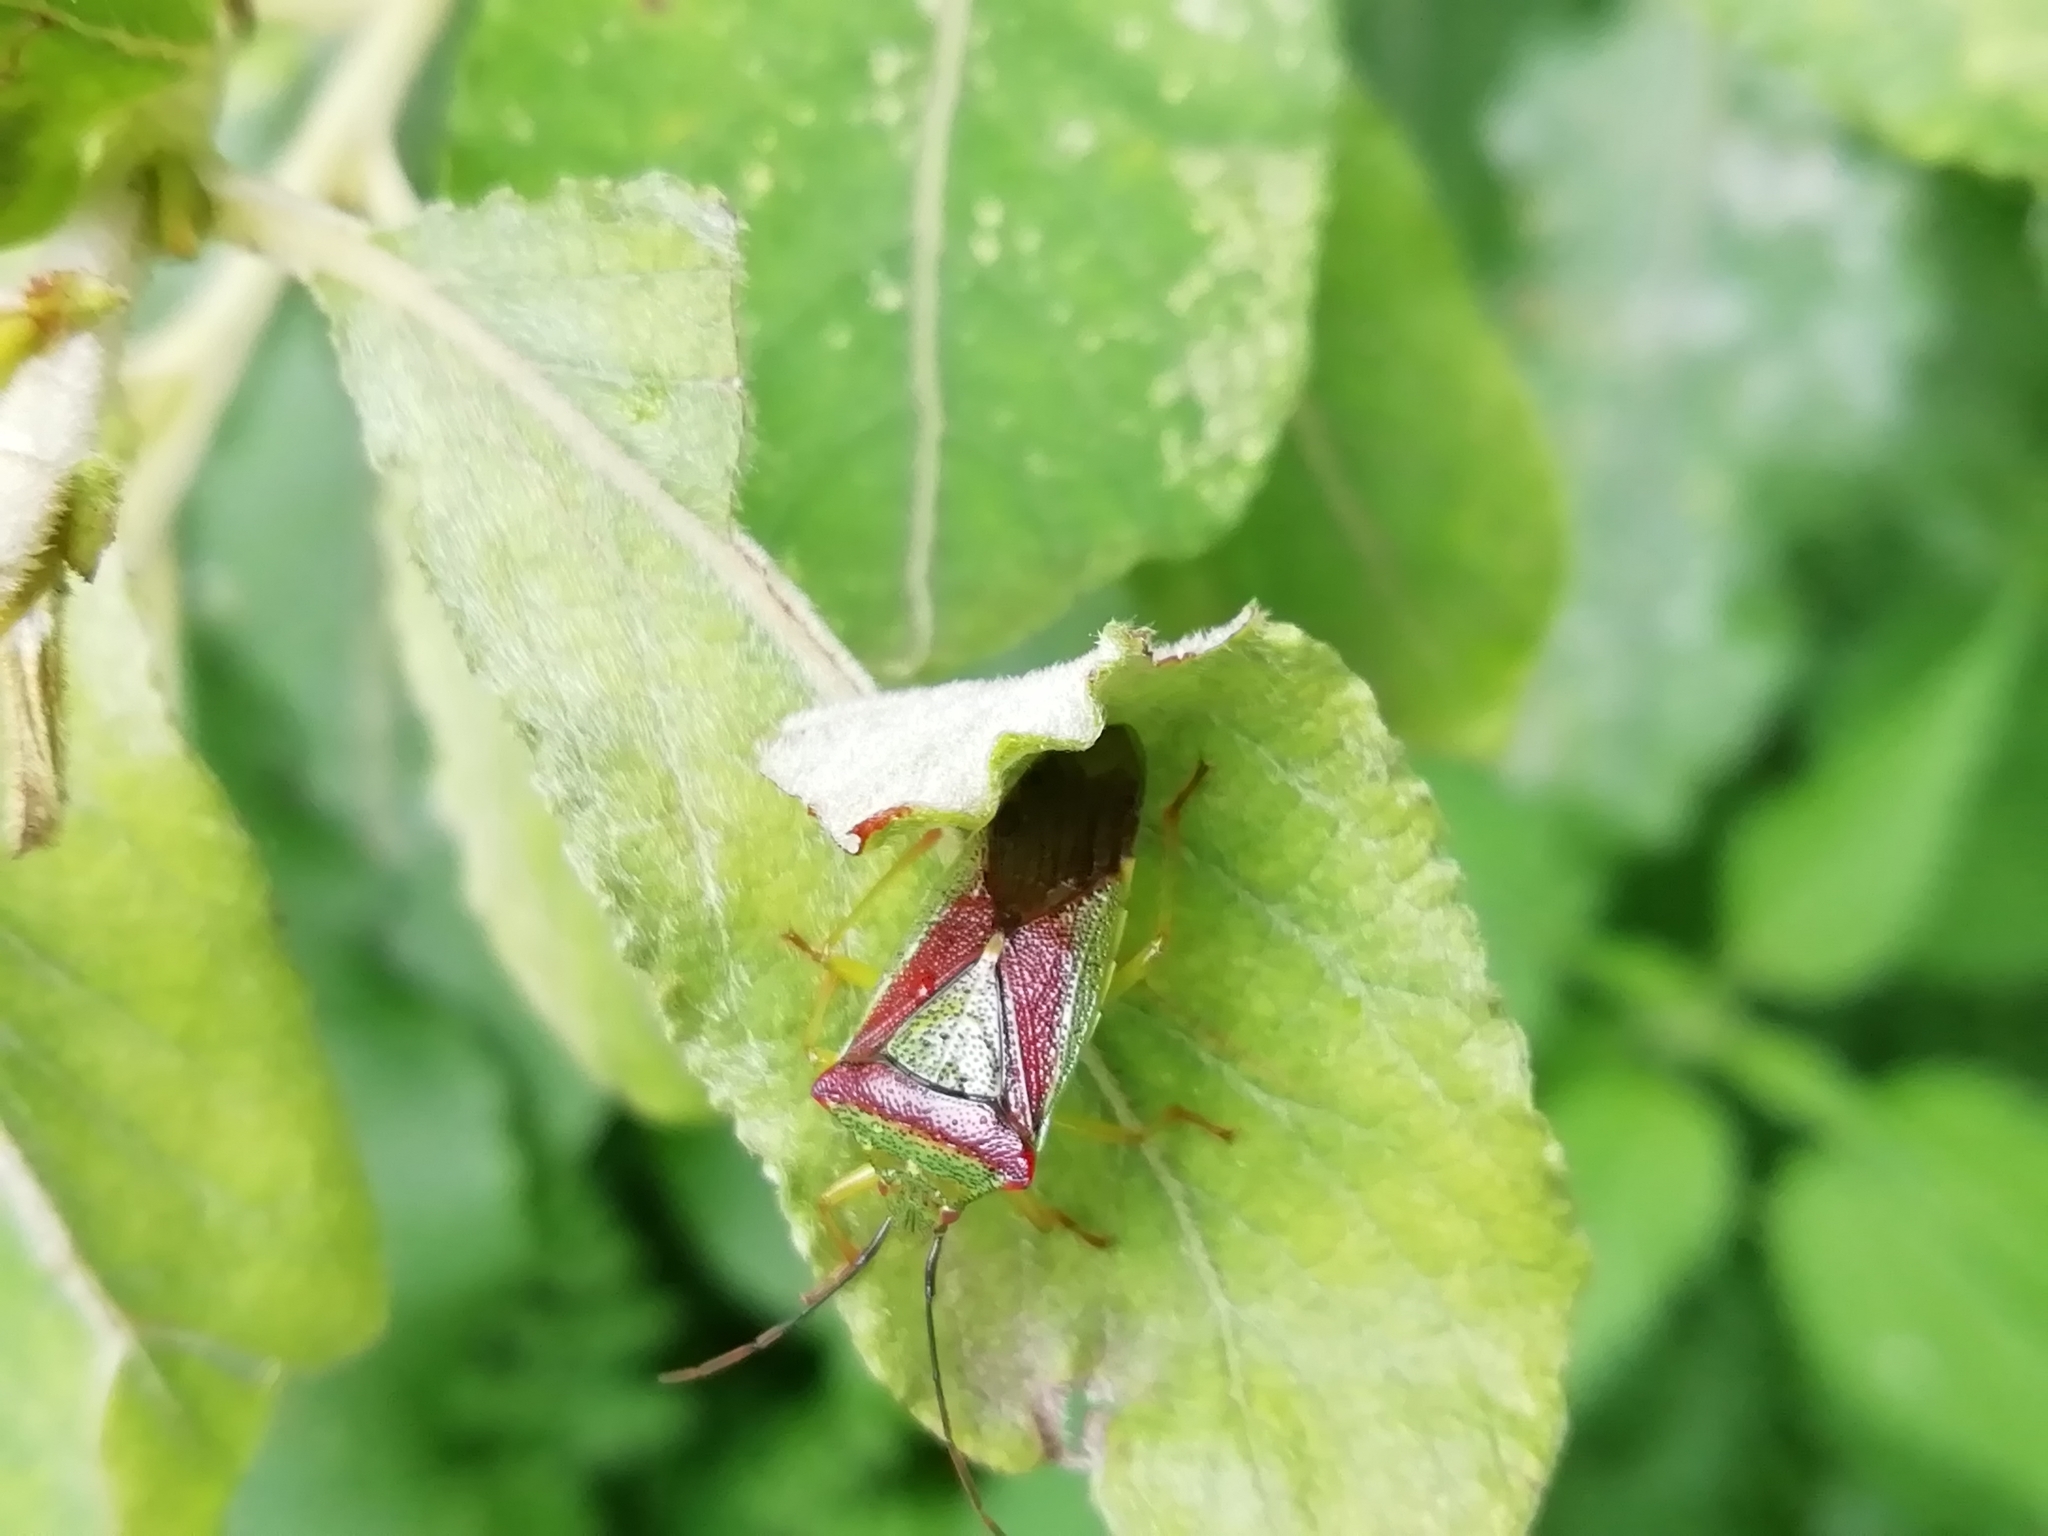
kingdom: Animalia
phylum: Arthropoda
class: Insecta
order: Hemiptera
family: Acanthosomatidae
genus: Acanthosoma
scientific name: Acanthosoma spinicolle
